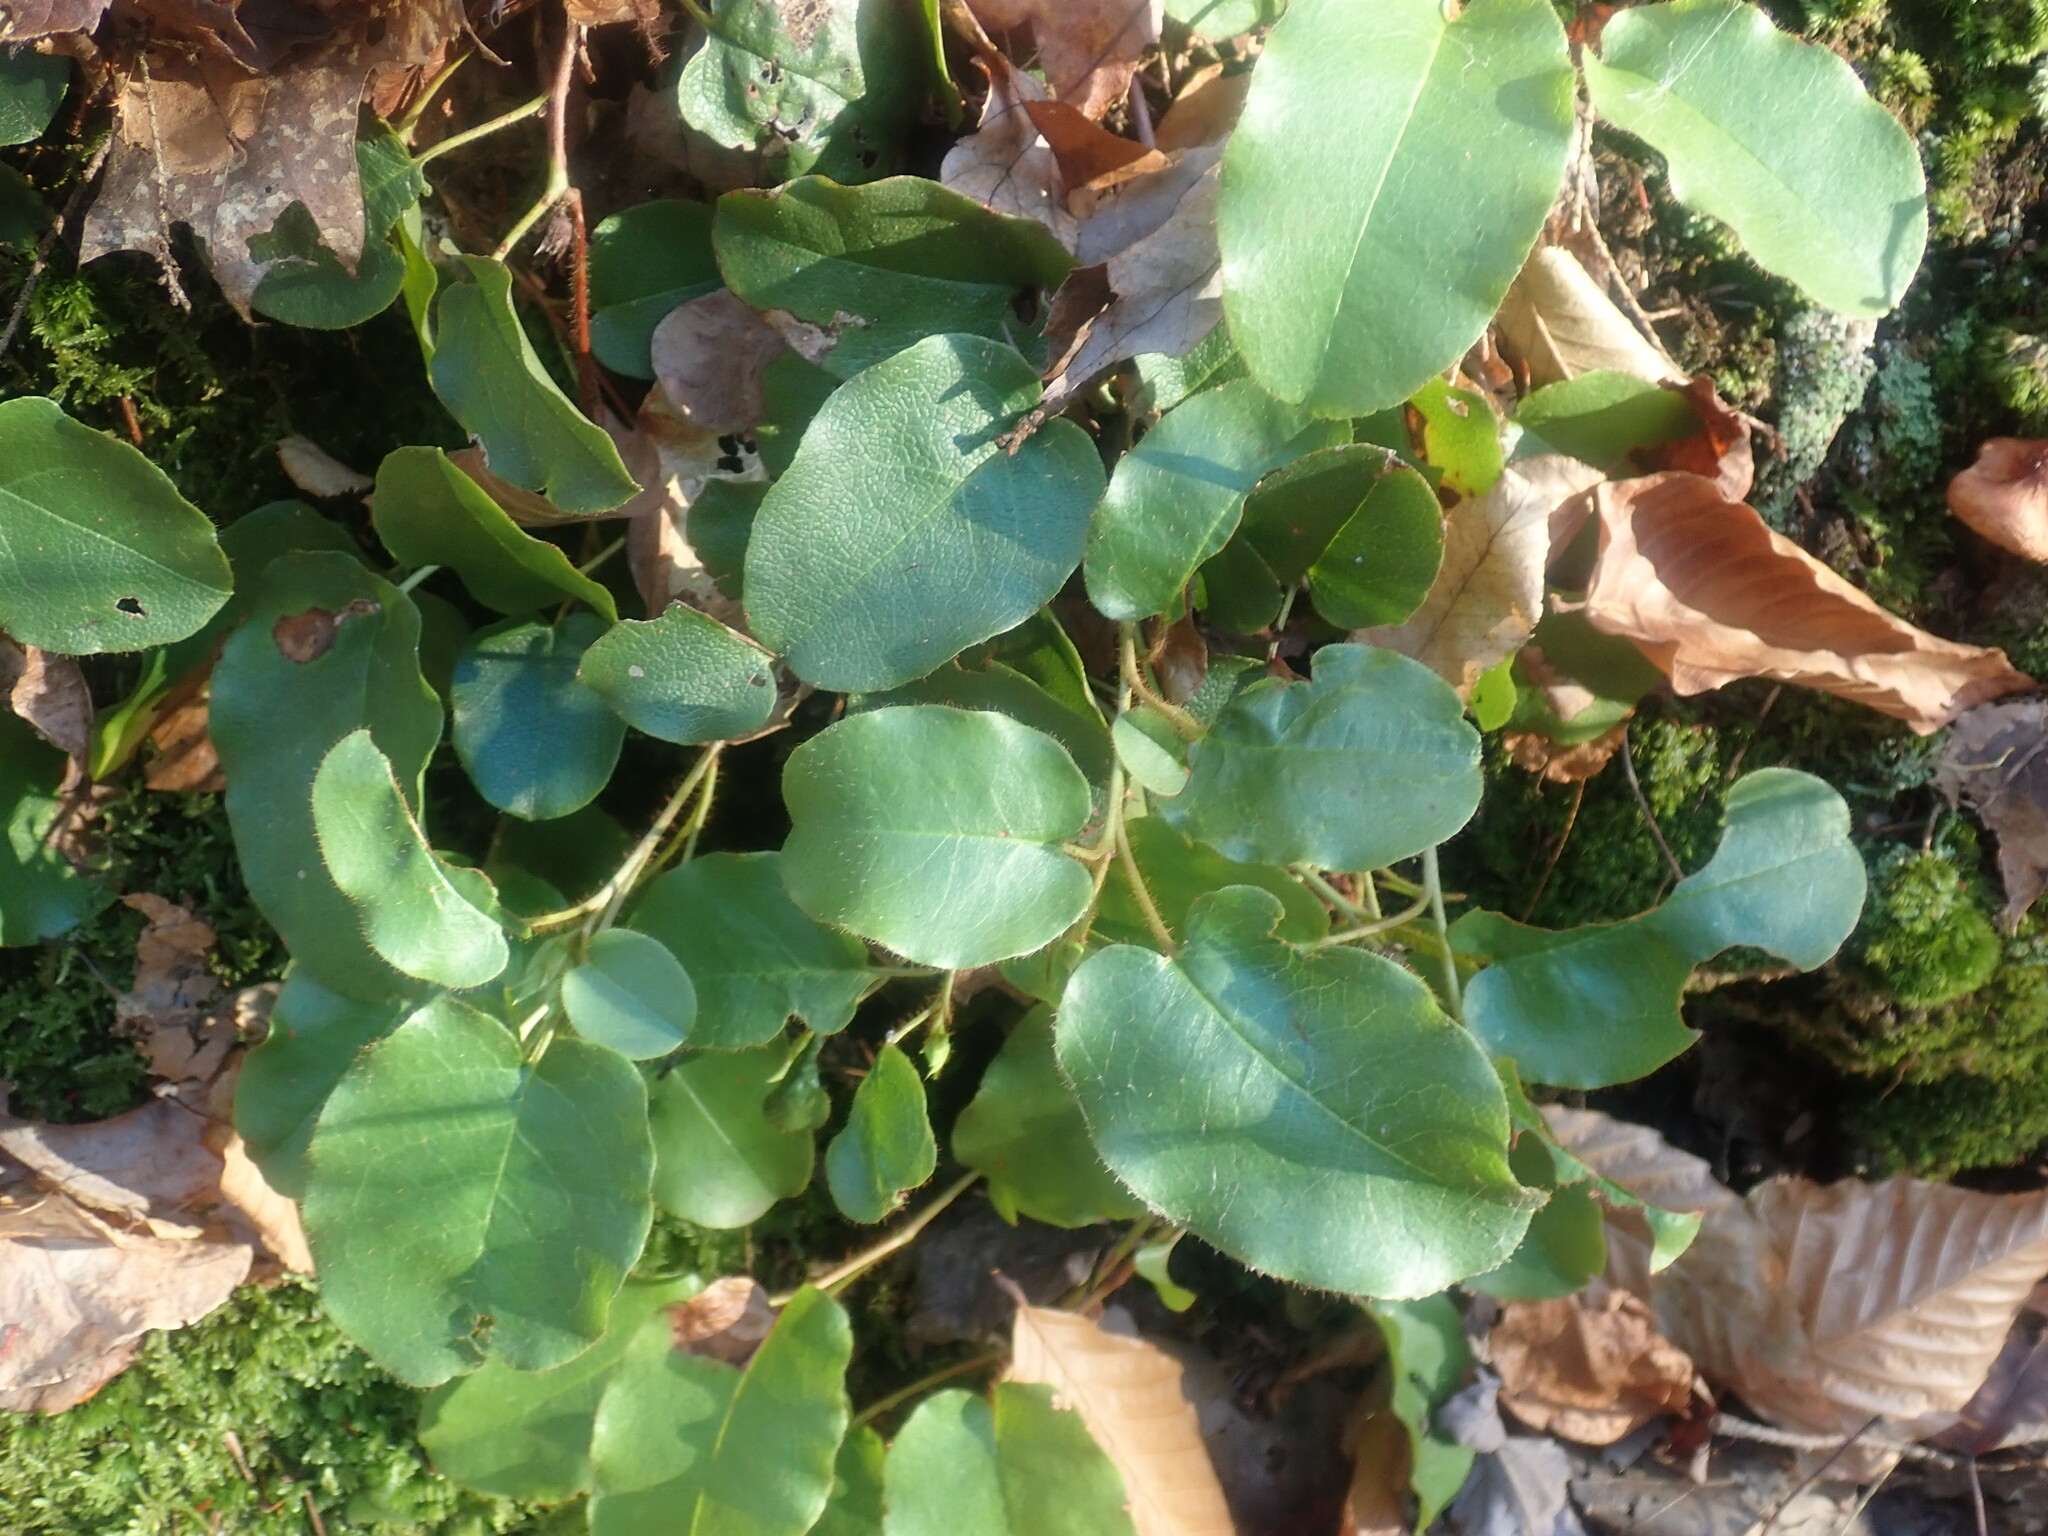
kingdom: Plantae
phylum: Tracheophyta
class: Magnoliopsida
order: Ericales
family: Ericaceae
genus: Epigaea
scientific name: Epigaea repens
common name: Gravelroot
